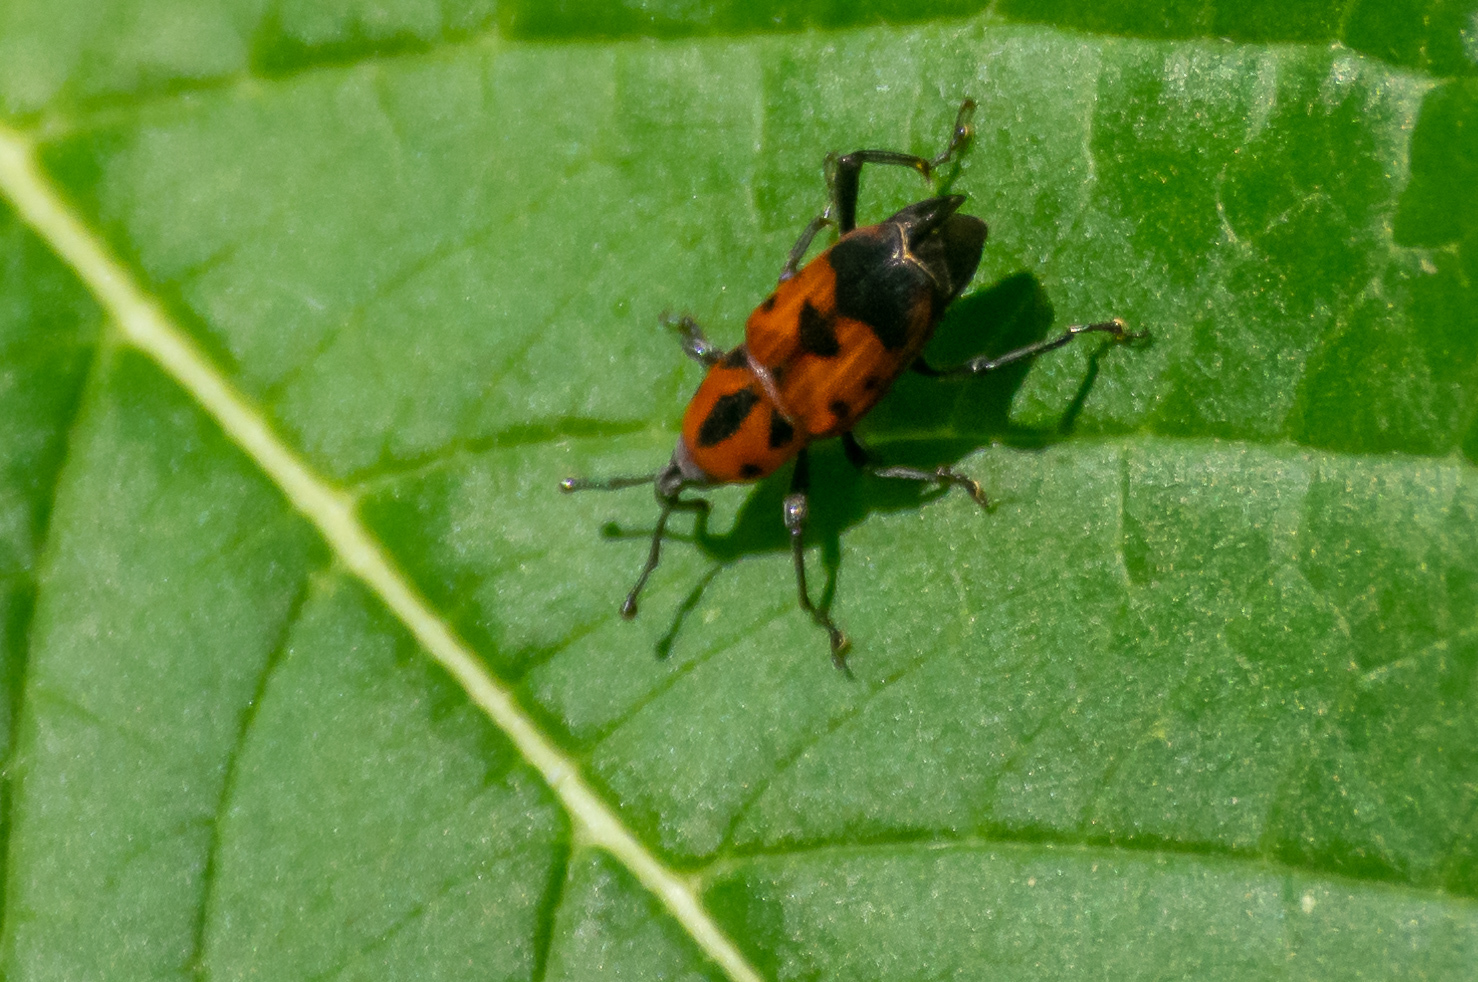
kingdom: Animalia
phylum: Arthropoda
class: Insecta
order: Coleoptera
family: Dryophthoridae
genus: Rhodobaenus
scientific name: Rhodobaenus quinquepunctatus
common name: Cocklebur weevil
